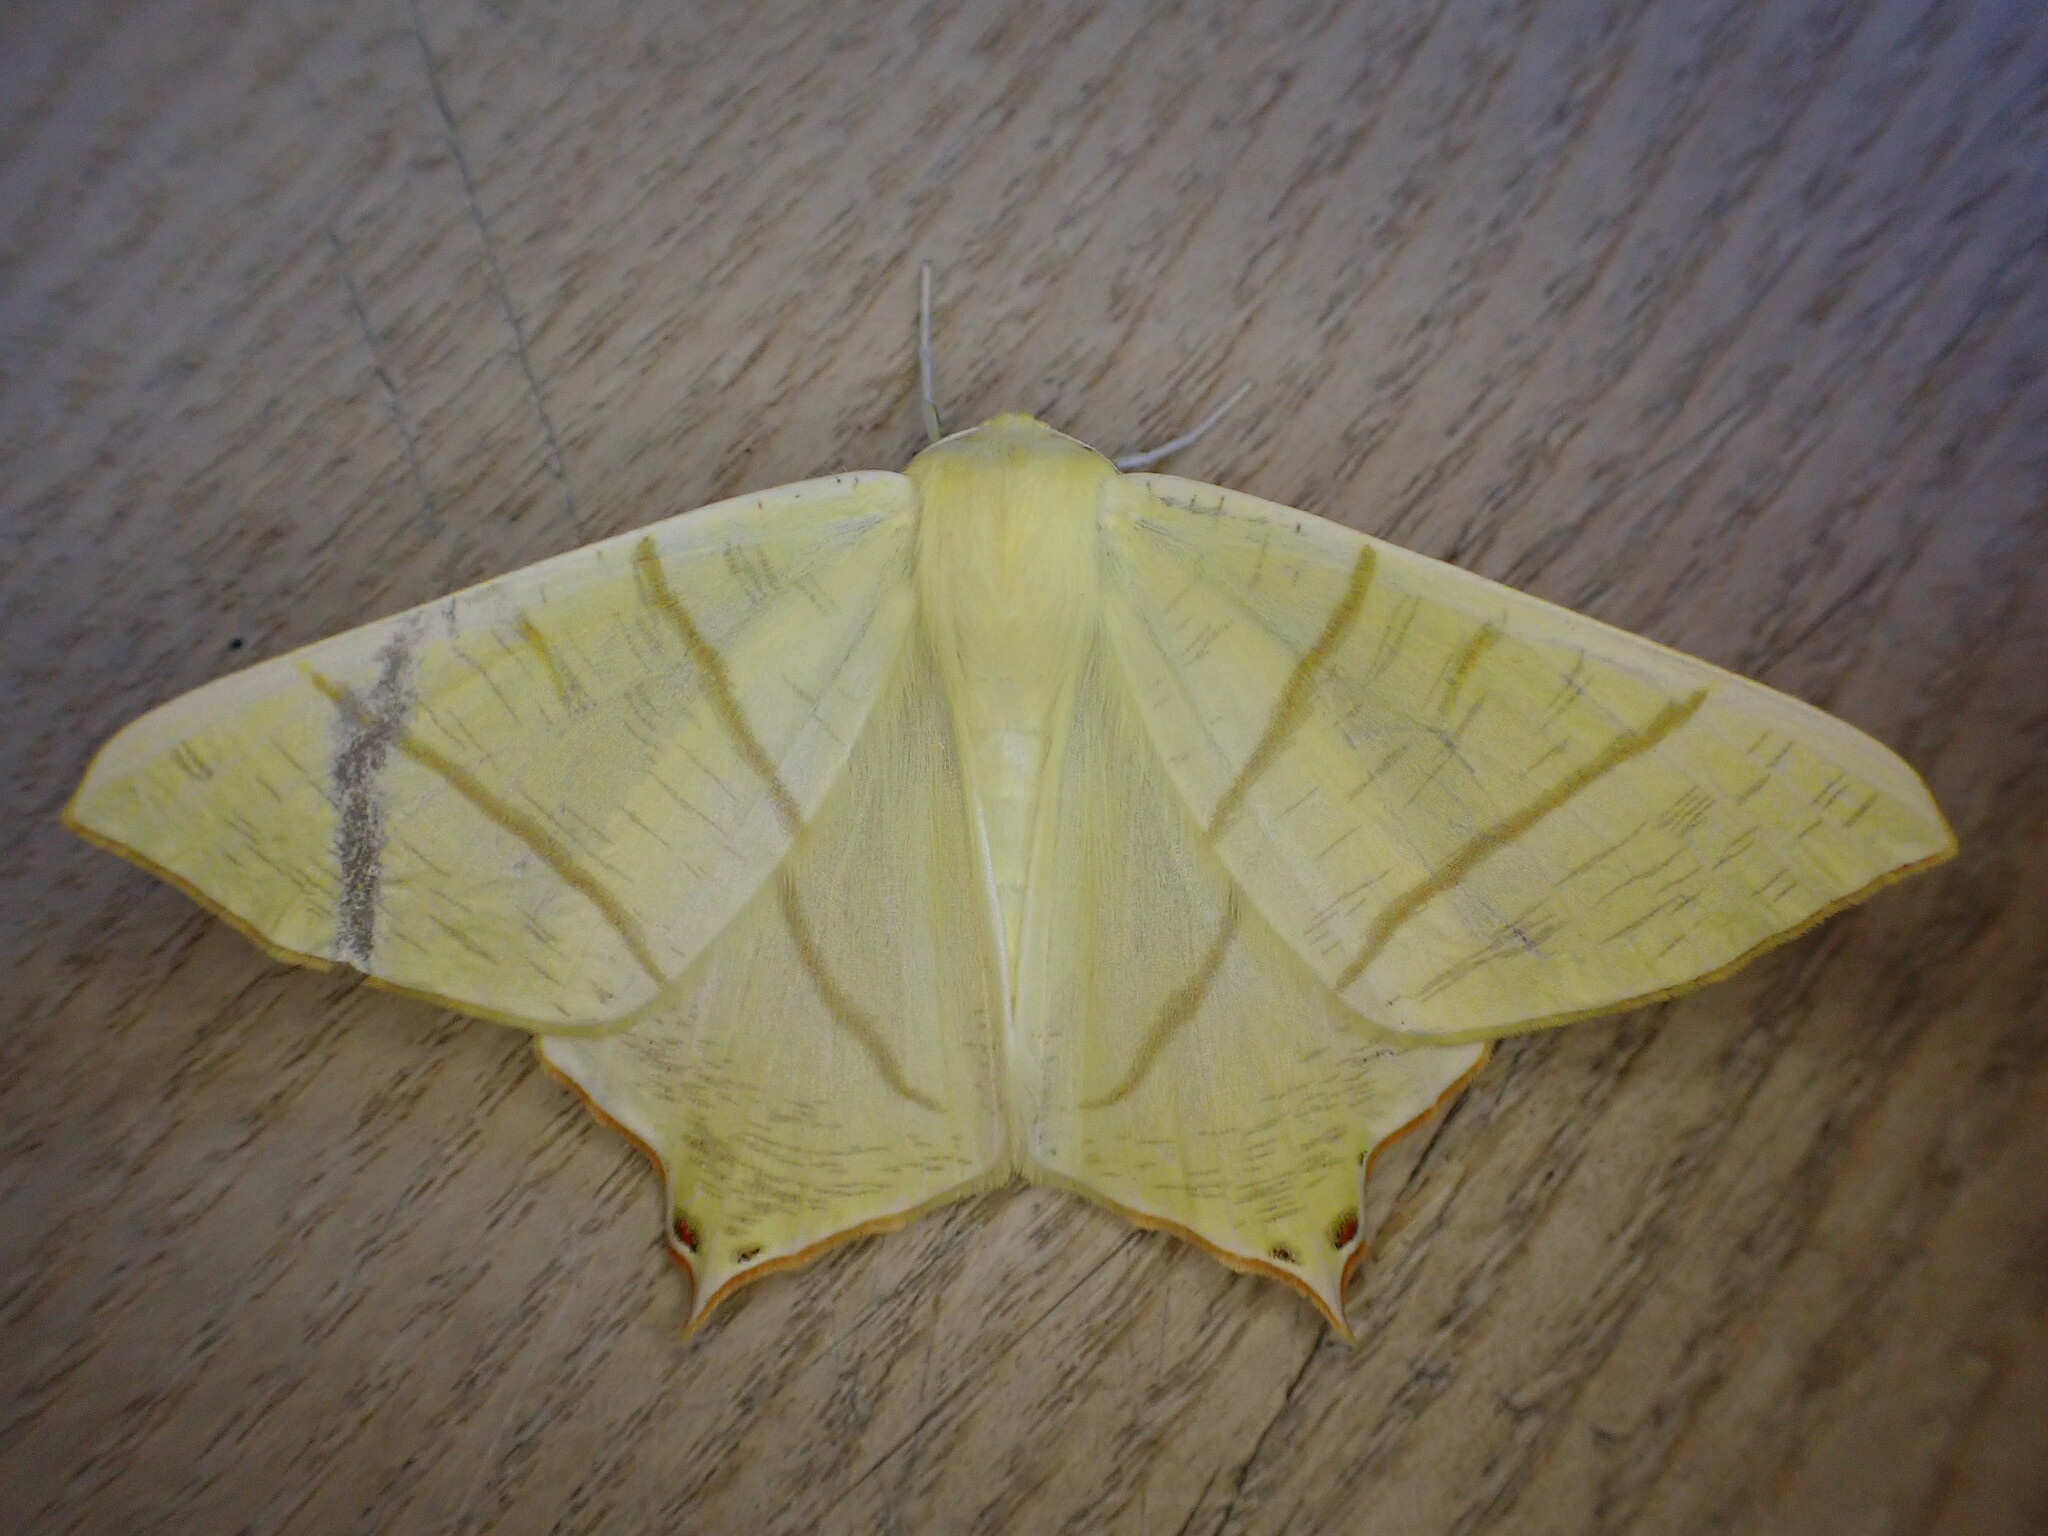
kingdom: Animalia
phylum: Arthropoda
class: Insecta
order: Lepidoptera
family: Geometridae
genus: Ourapteryx
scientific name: Ourapteryx sambucaria
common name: Swallow-tailed moth
